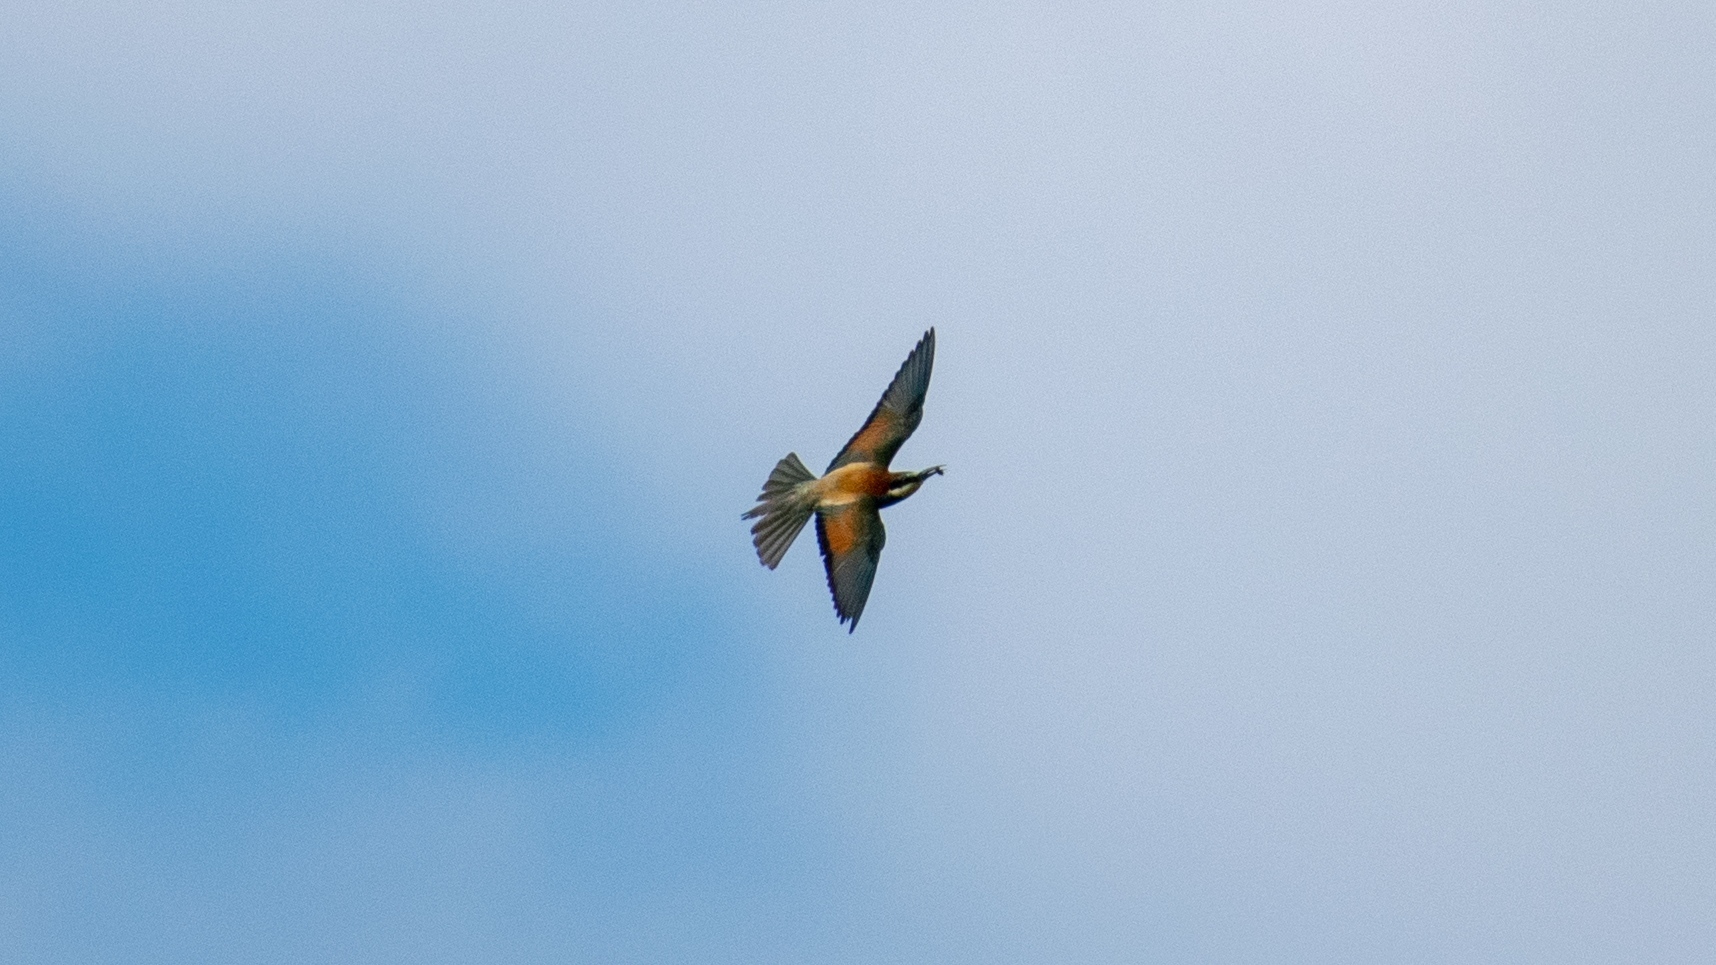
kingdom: Animalia
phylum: Chordata
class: Aves
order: Coraciiformes
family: Meropidae
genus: Merops
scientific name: Merops apiaster
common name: European bee-eater
